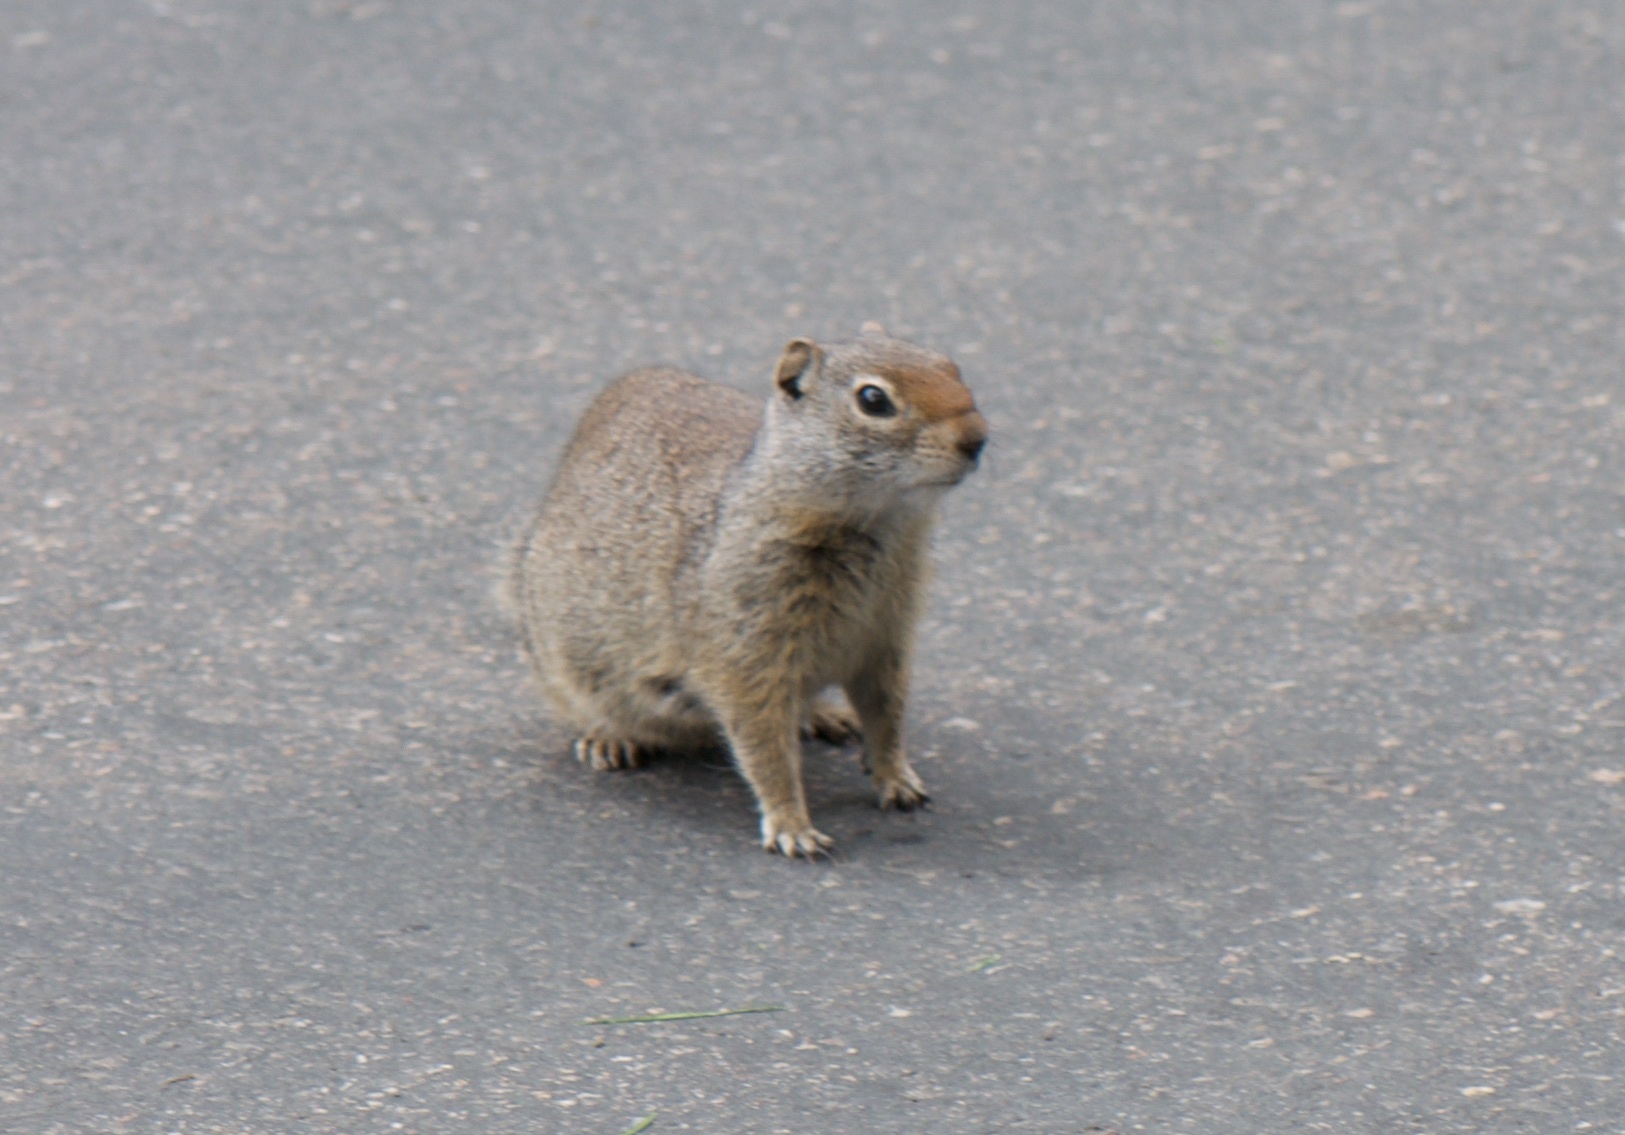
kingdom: Animalia
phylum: Chordata
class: Mammalia
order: Rodentia
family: Sciuridae
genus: Urocitellus
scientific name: Urocitellus armatus
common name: Uinta ground squirrel
